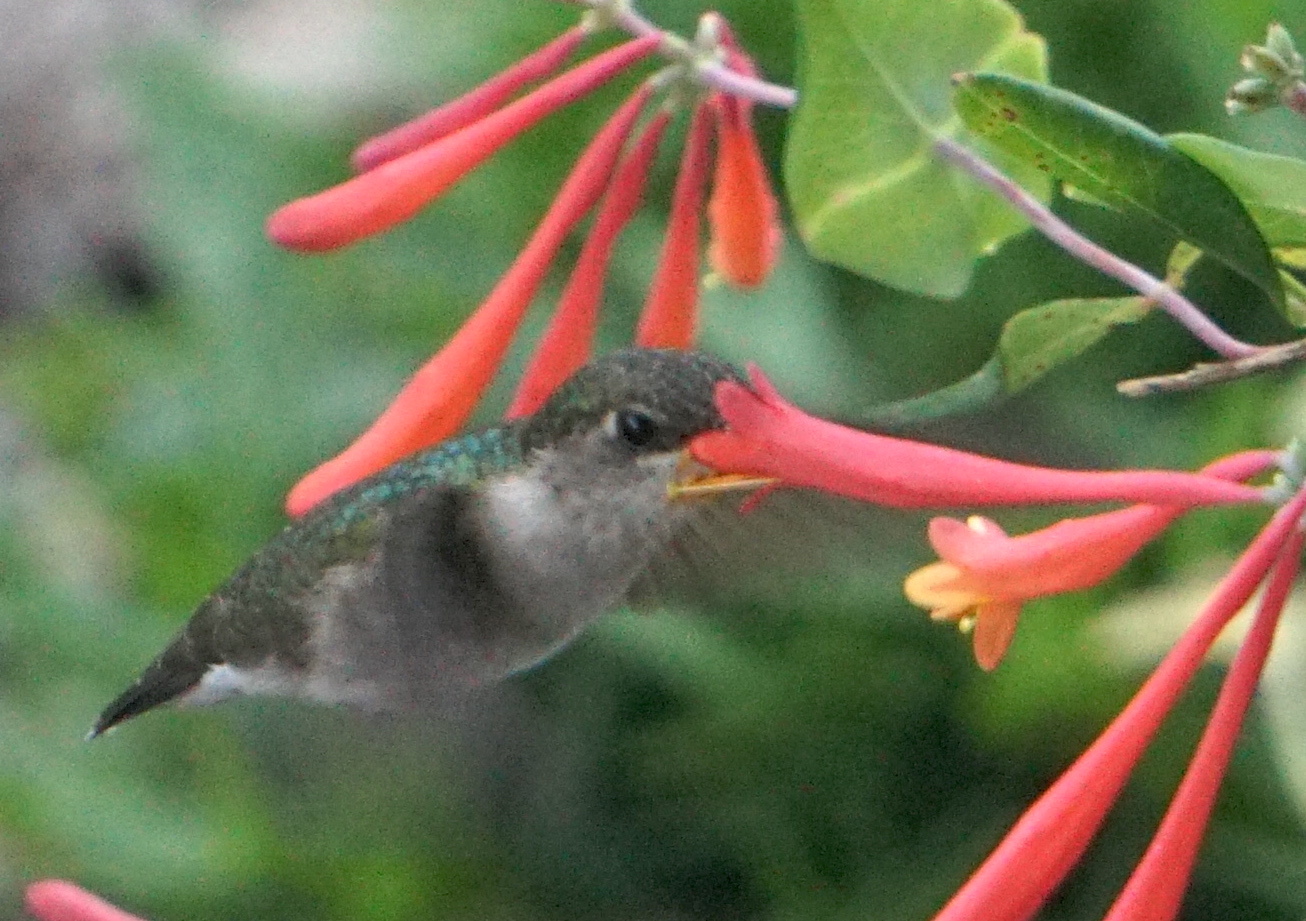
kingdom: Animalia
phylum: Chordata
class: Aves
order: Apodiformes
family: Trochilidae
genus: Archilochus
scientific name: Archilochus colubris
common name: Ruby-throated hummingbird
